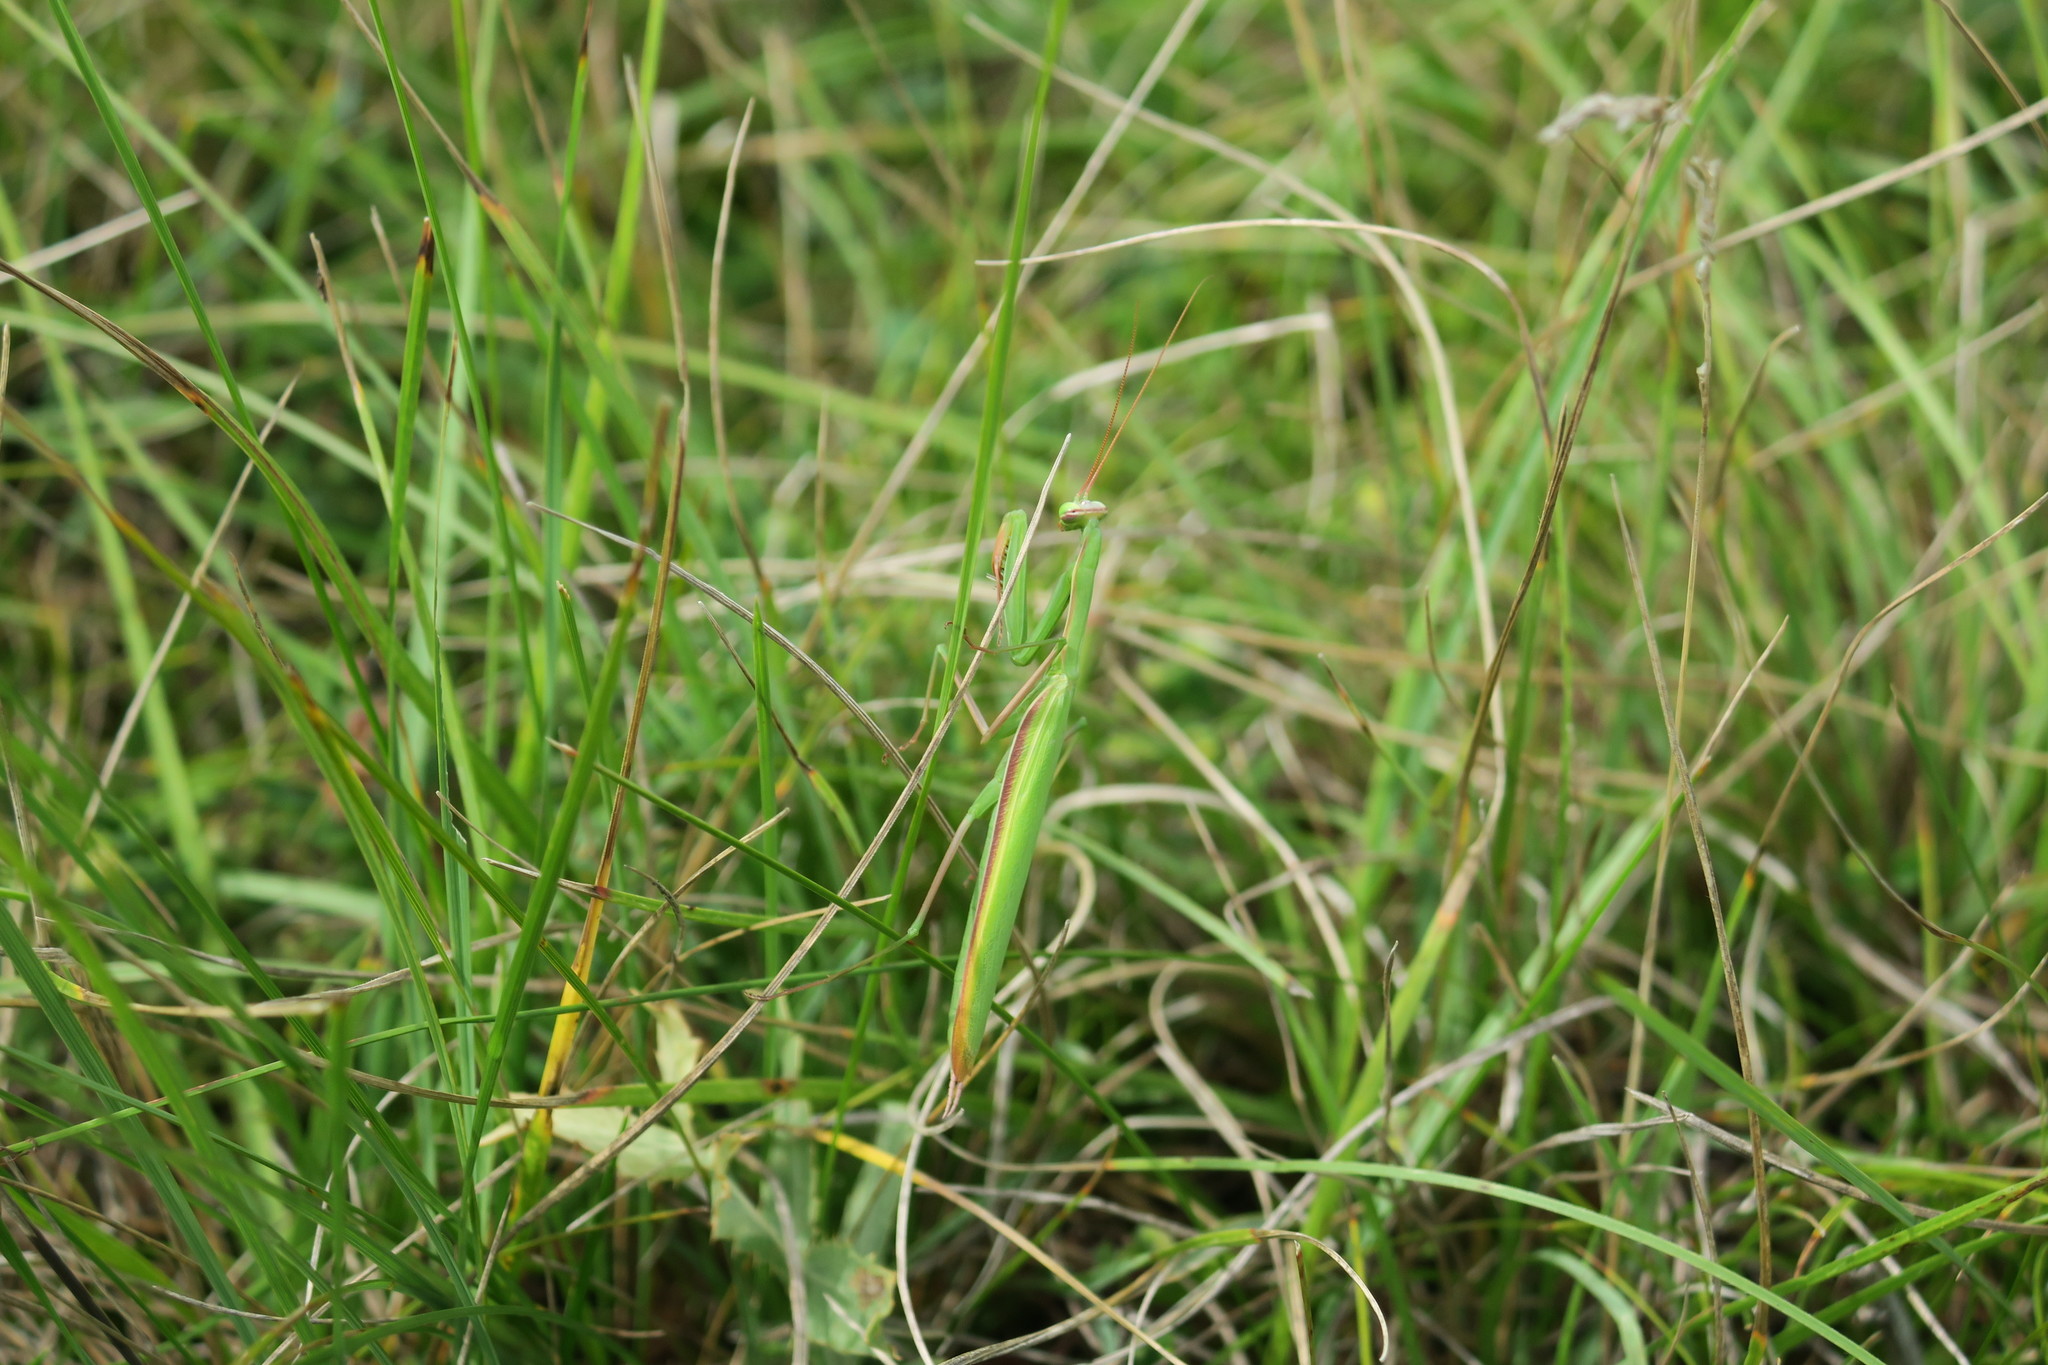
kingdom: Animalia
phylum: Arthropoda
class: Insecta
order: Mantodea
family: Mantidae
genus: Mantis
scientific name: Mantis religiosa
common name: Praying mantis
